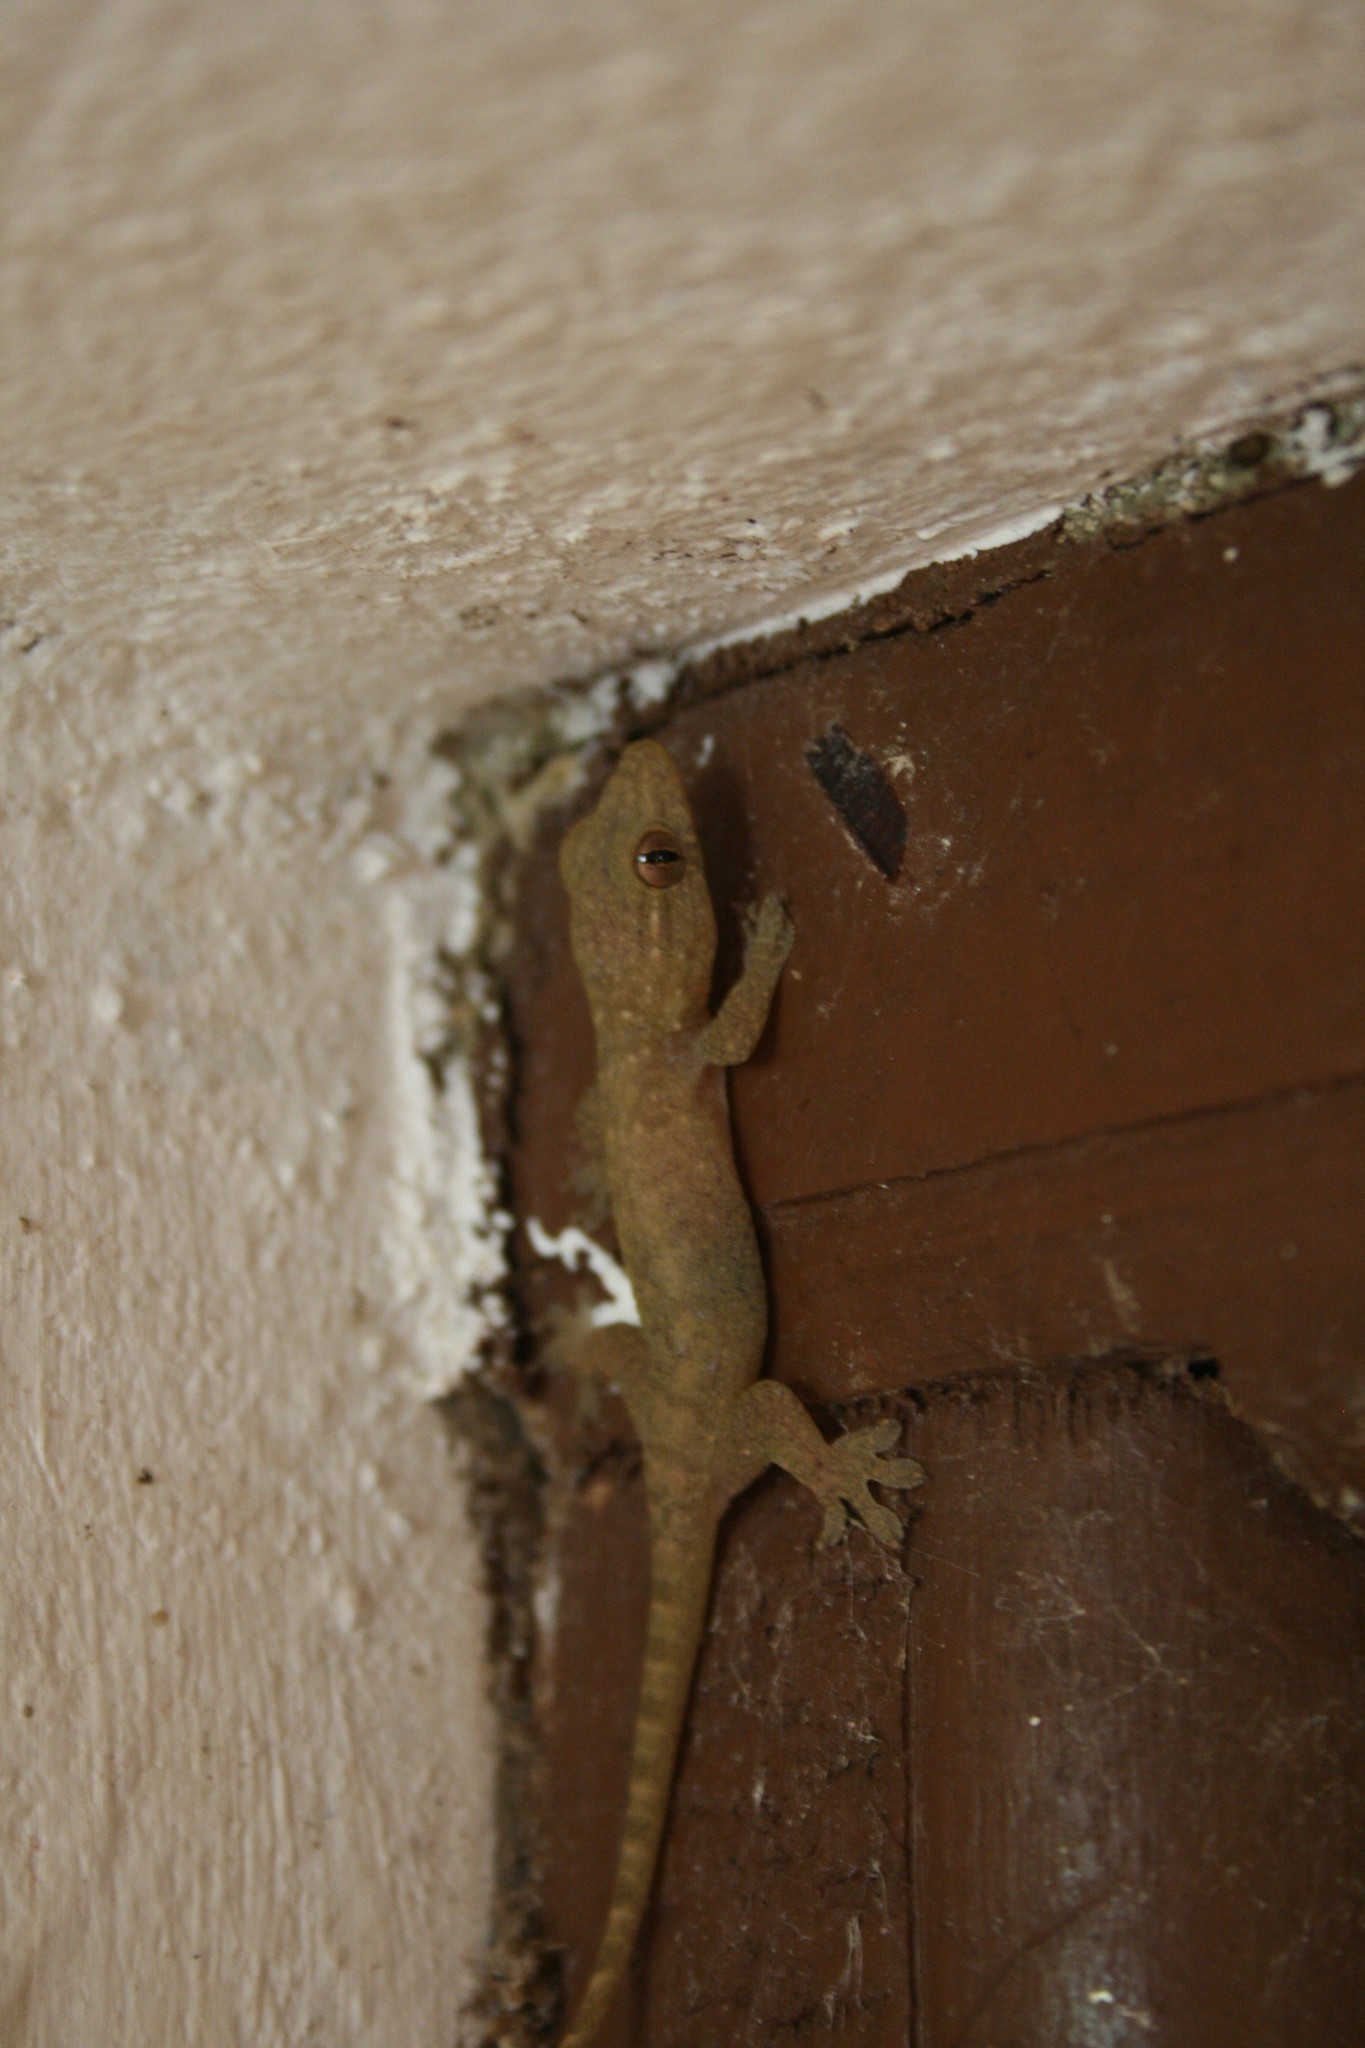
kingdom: Animalia
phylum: Chordata
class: Squamata
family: Gekkonidae
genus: Gehyra
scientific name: Gehyra oceanica
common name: Pacific dtella
